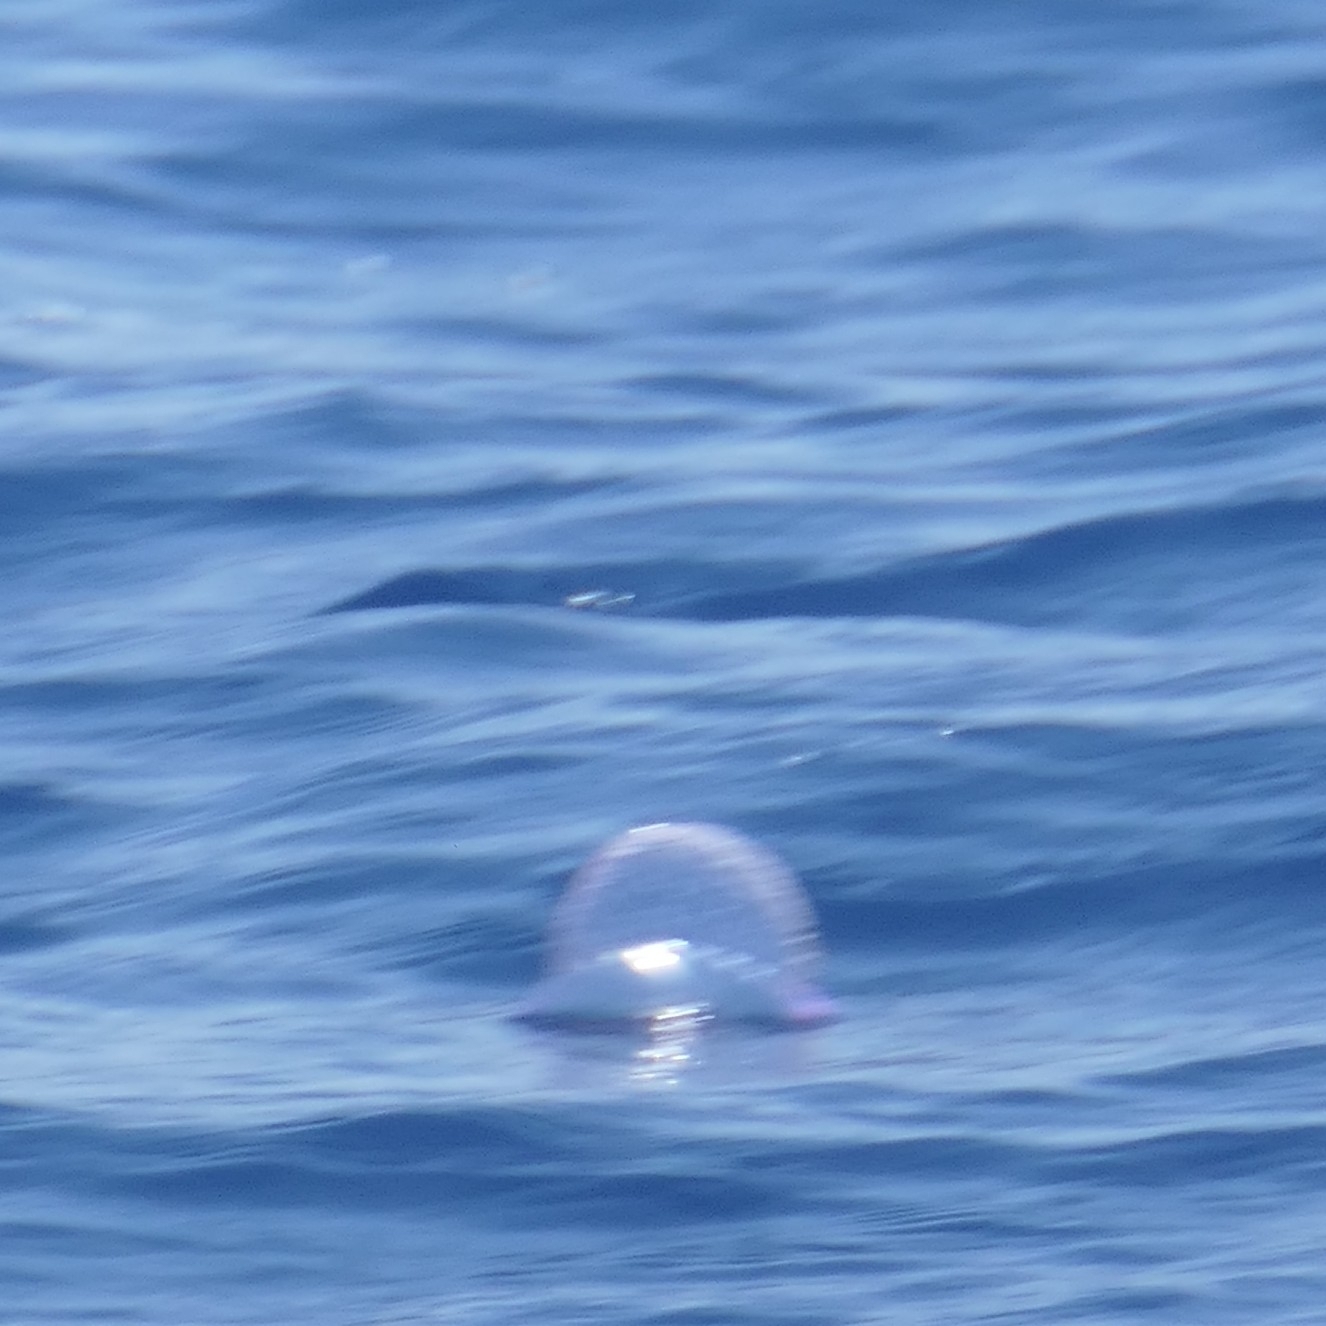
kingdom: Animalia
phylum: Cnidaria
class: Hydrozoa
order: Siphonophorae
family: Physaliidae
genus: Physalia
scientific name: Physalia physalis
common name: Portuguese man-of-war
